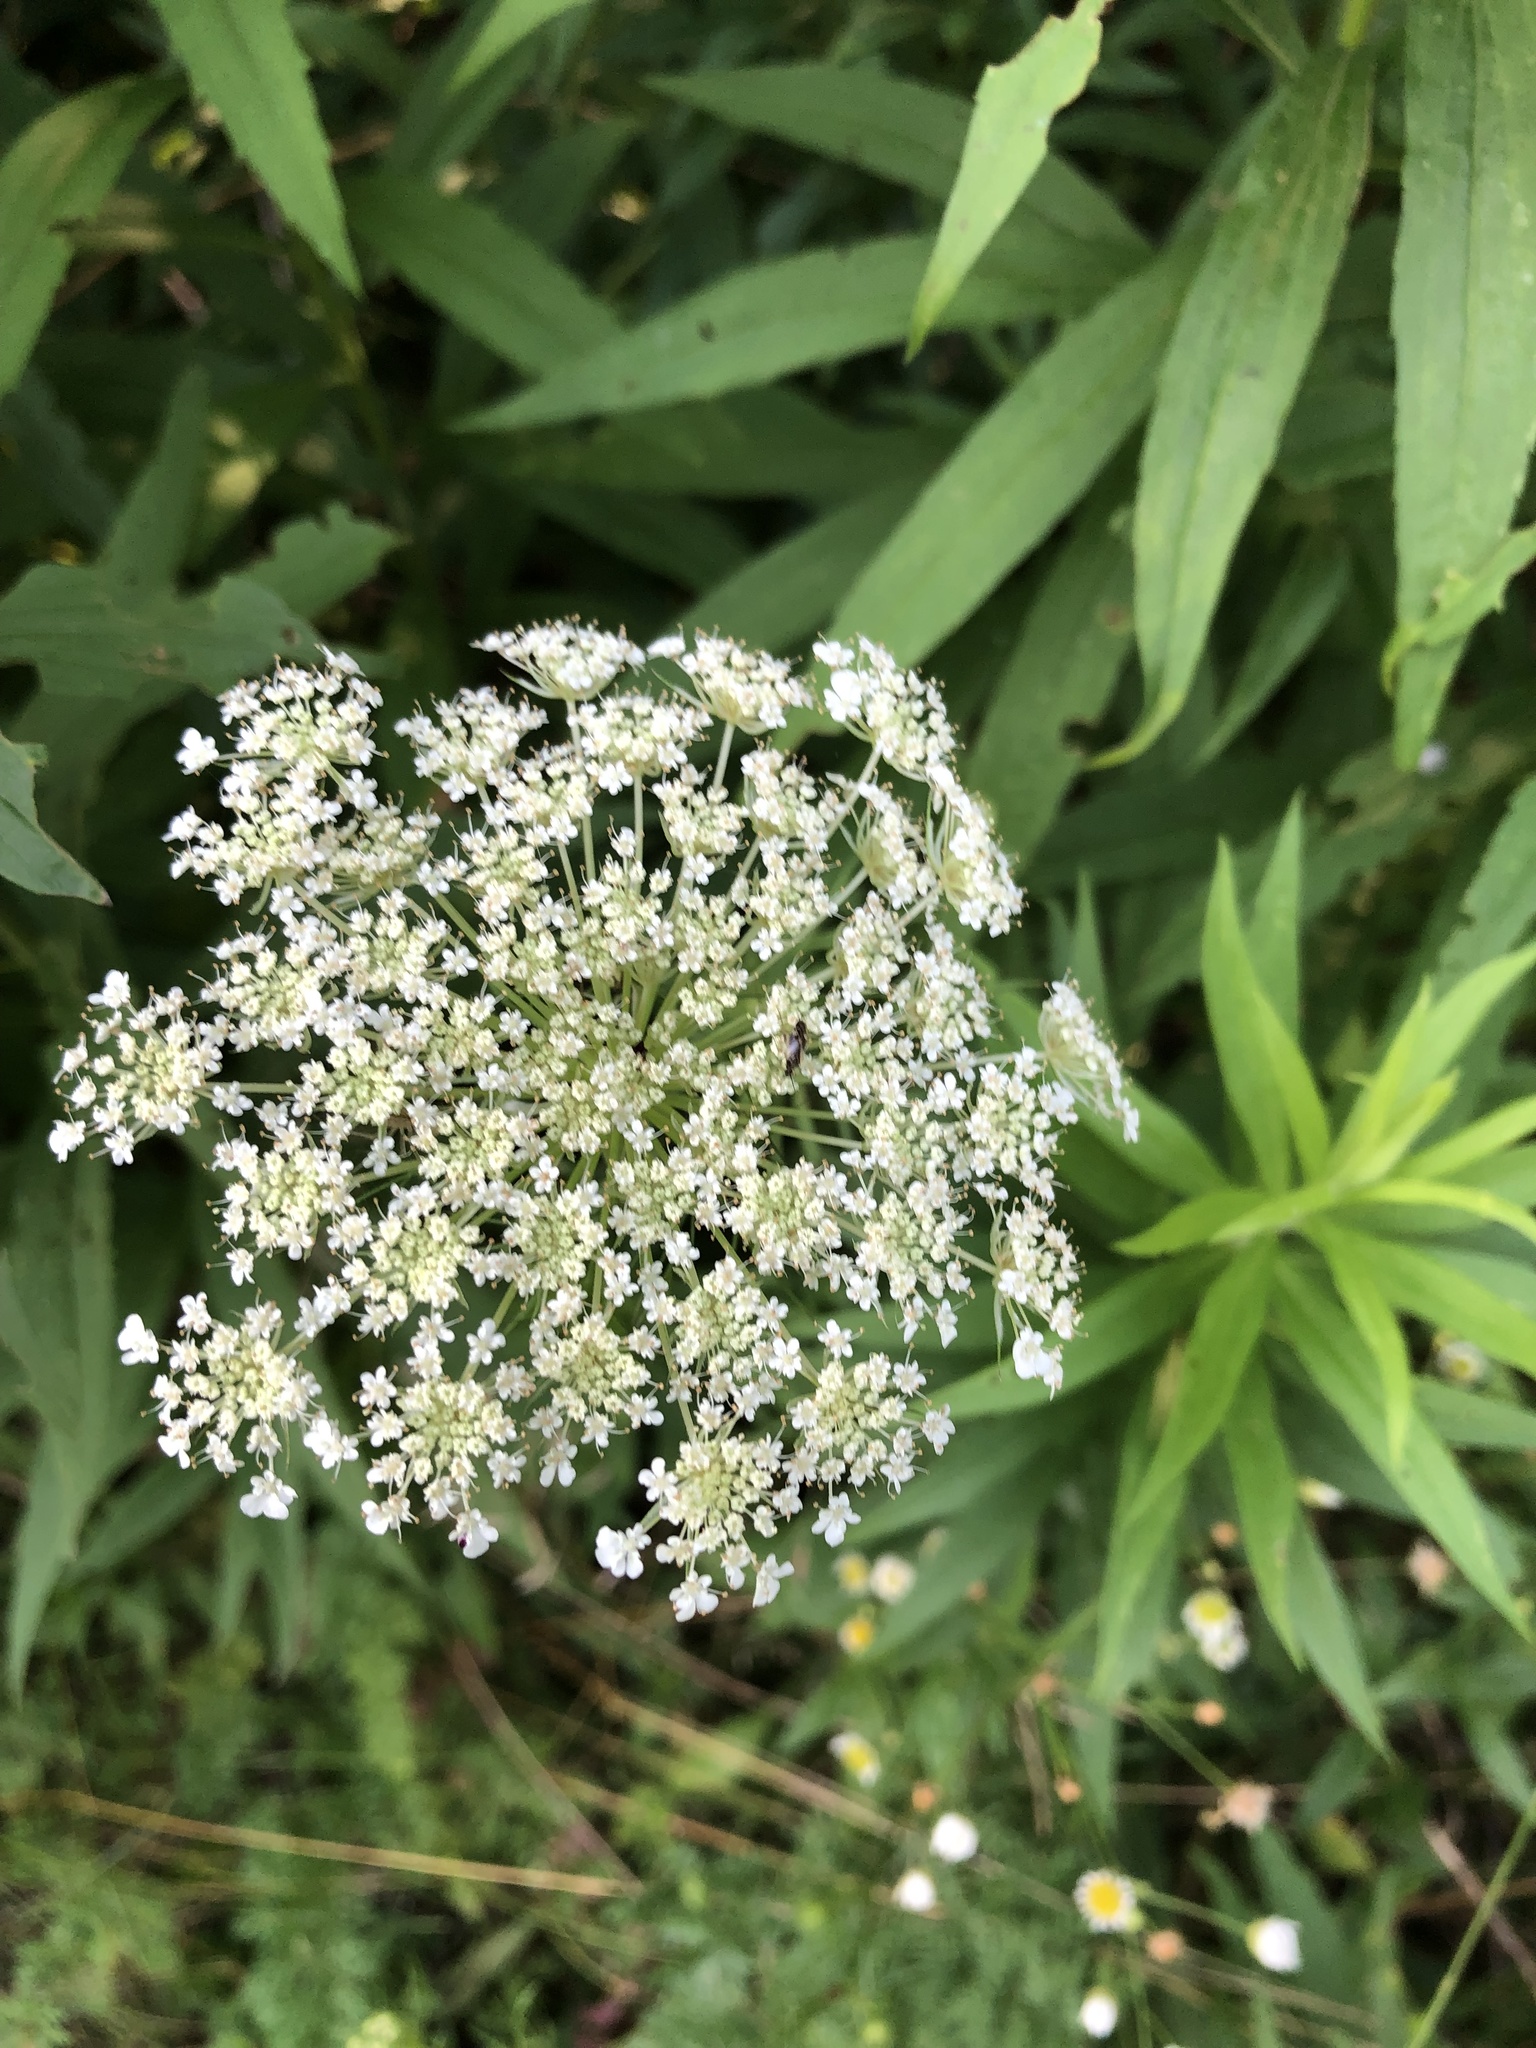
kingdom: Plantae
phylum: Tracheophyta
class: Magnoliopsida
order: Apiales
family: Apiaceae
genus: Daucus
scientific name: Daucus carota
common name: Wild carrot
